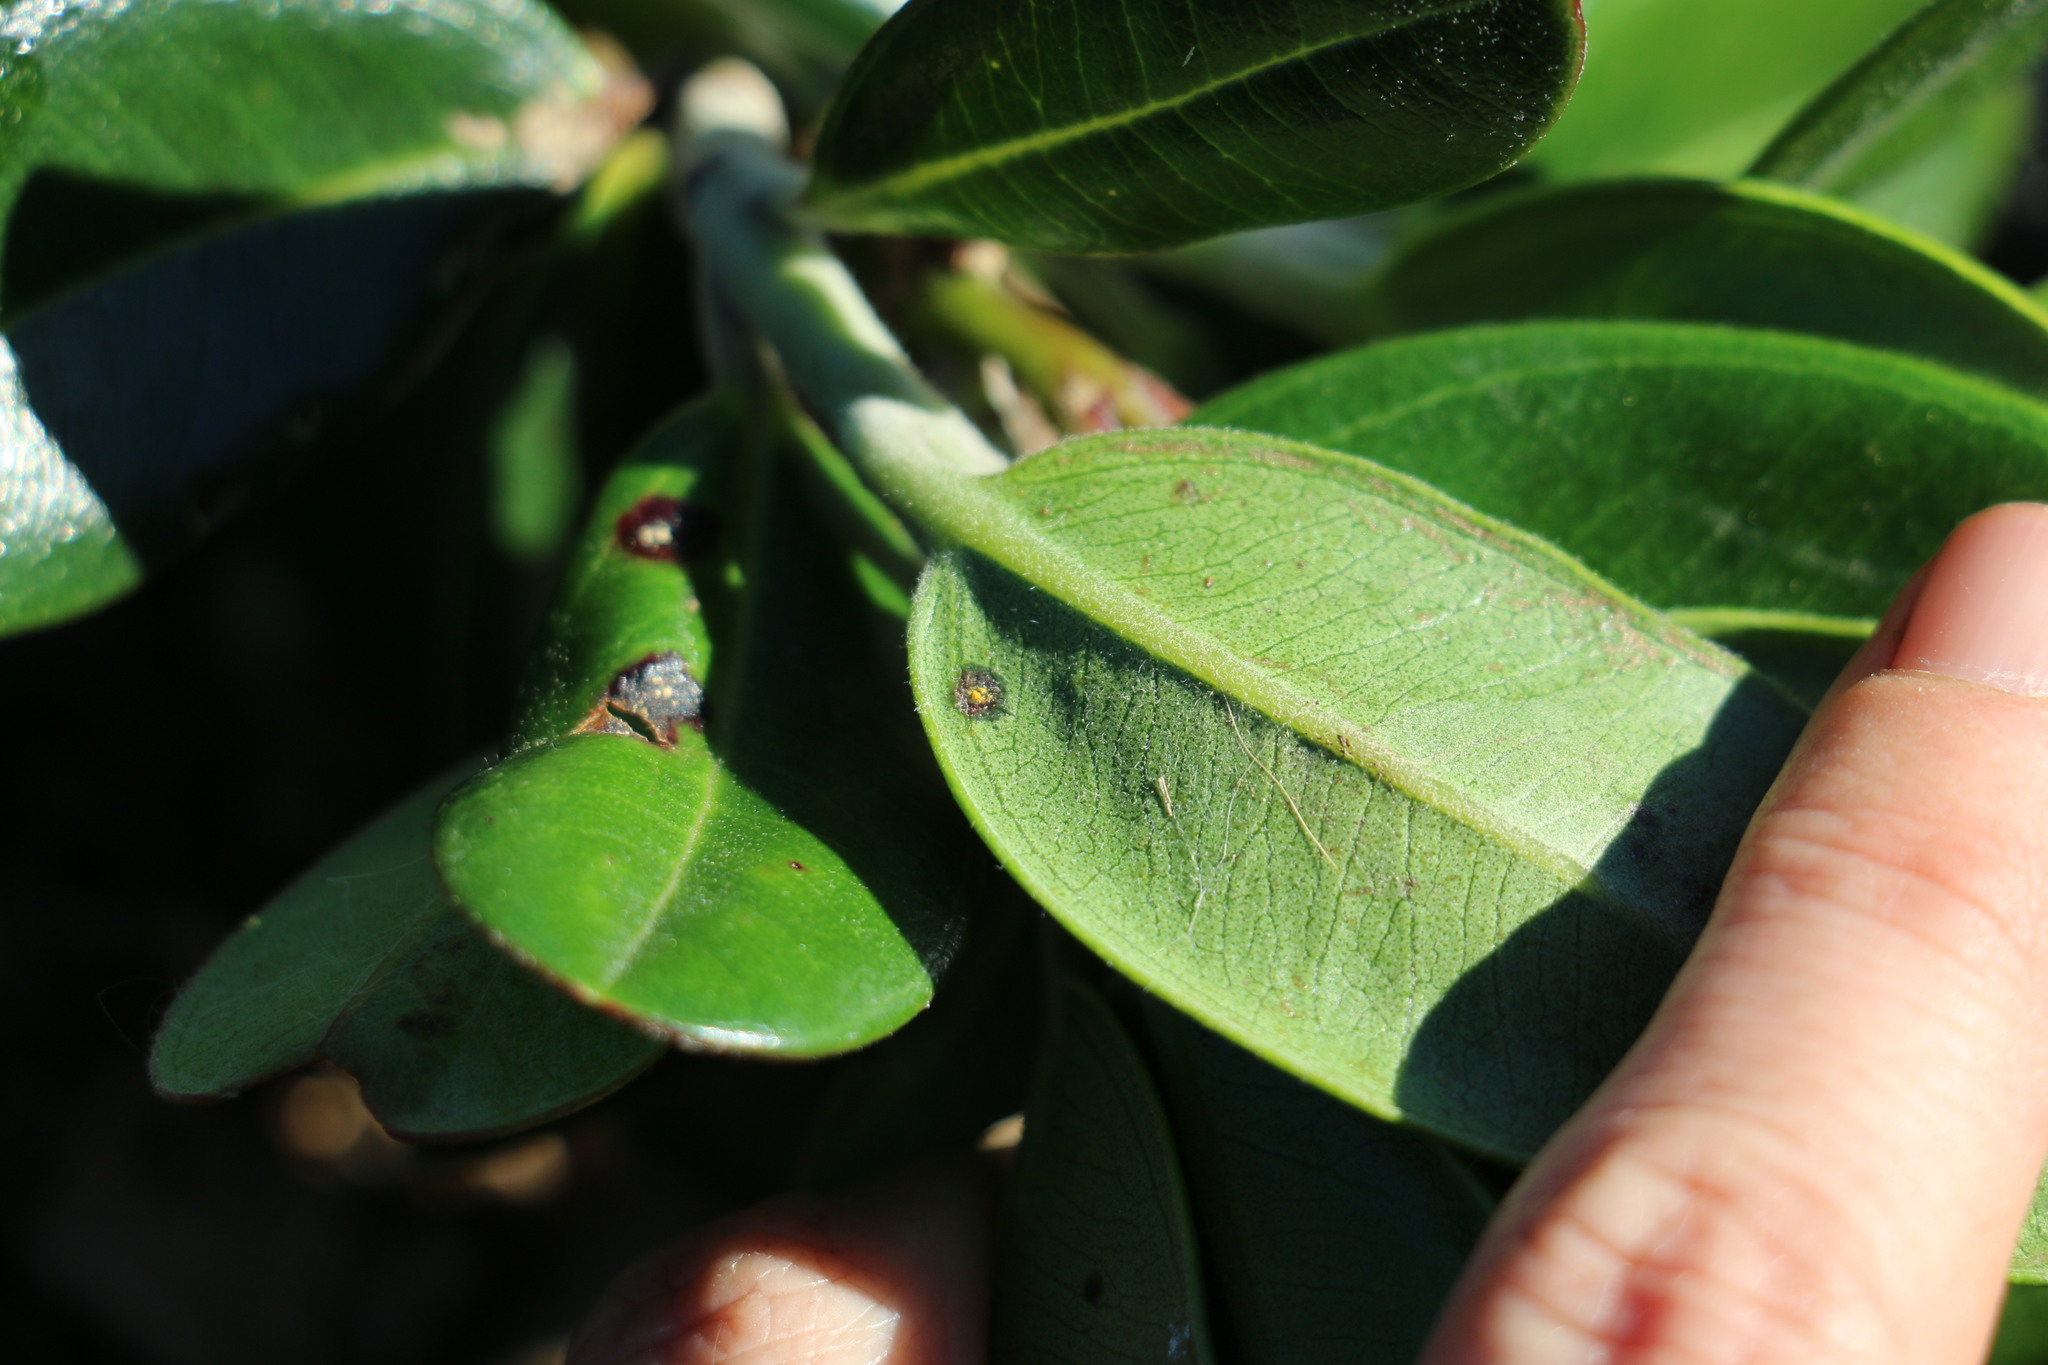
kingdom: Fungi
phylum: Basidiomycota
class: Pucciniomycetes
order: Pucciniales
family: Sphaerophragmiaceae
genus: Austropuccinia
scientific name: Austropuccinia psidii
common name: Myrtle rust
